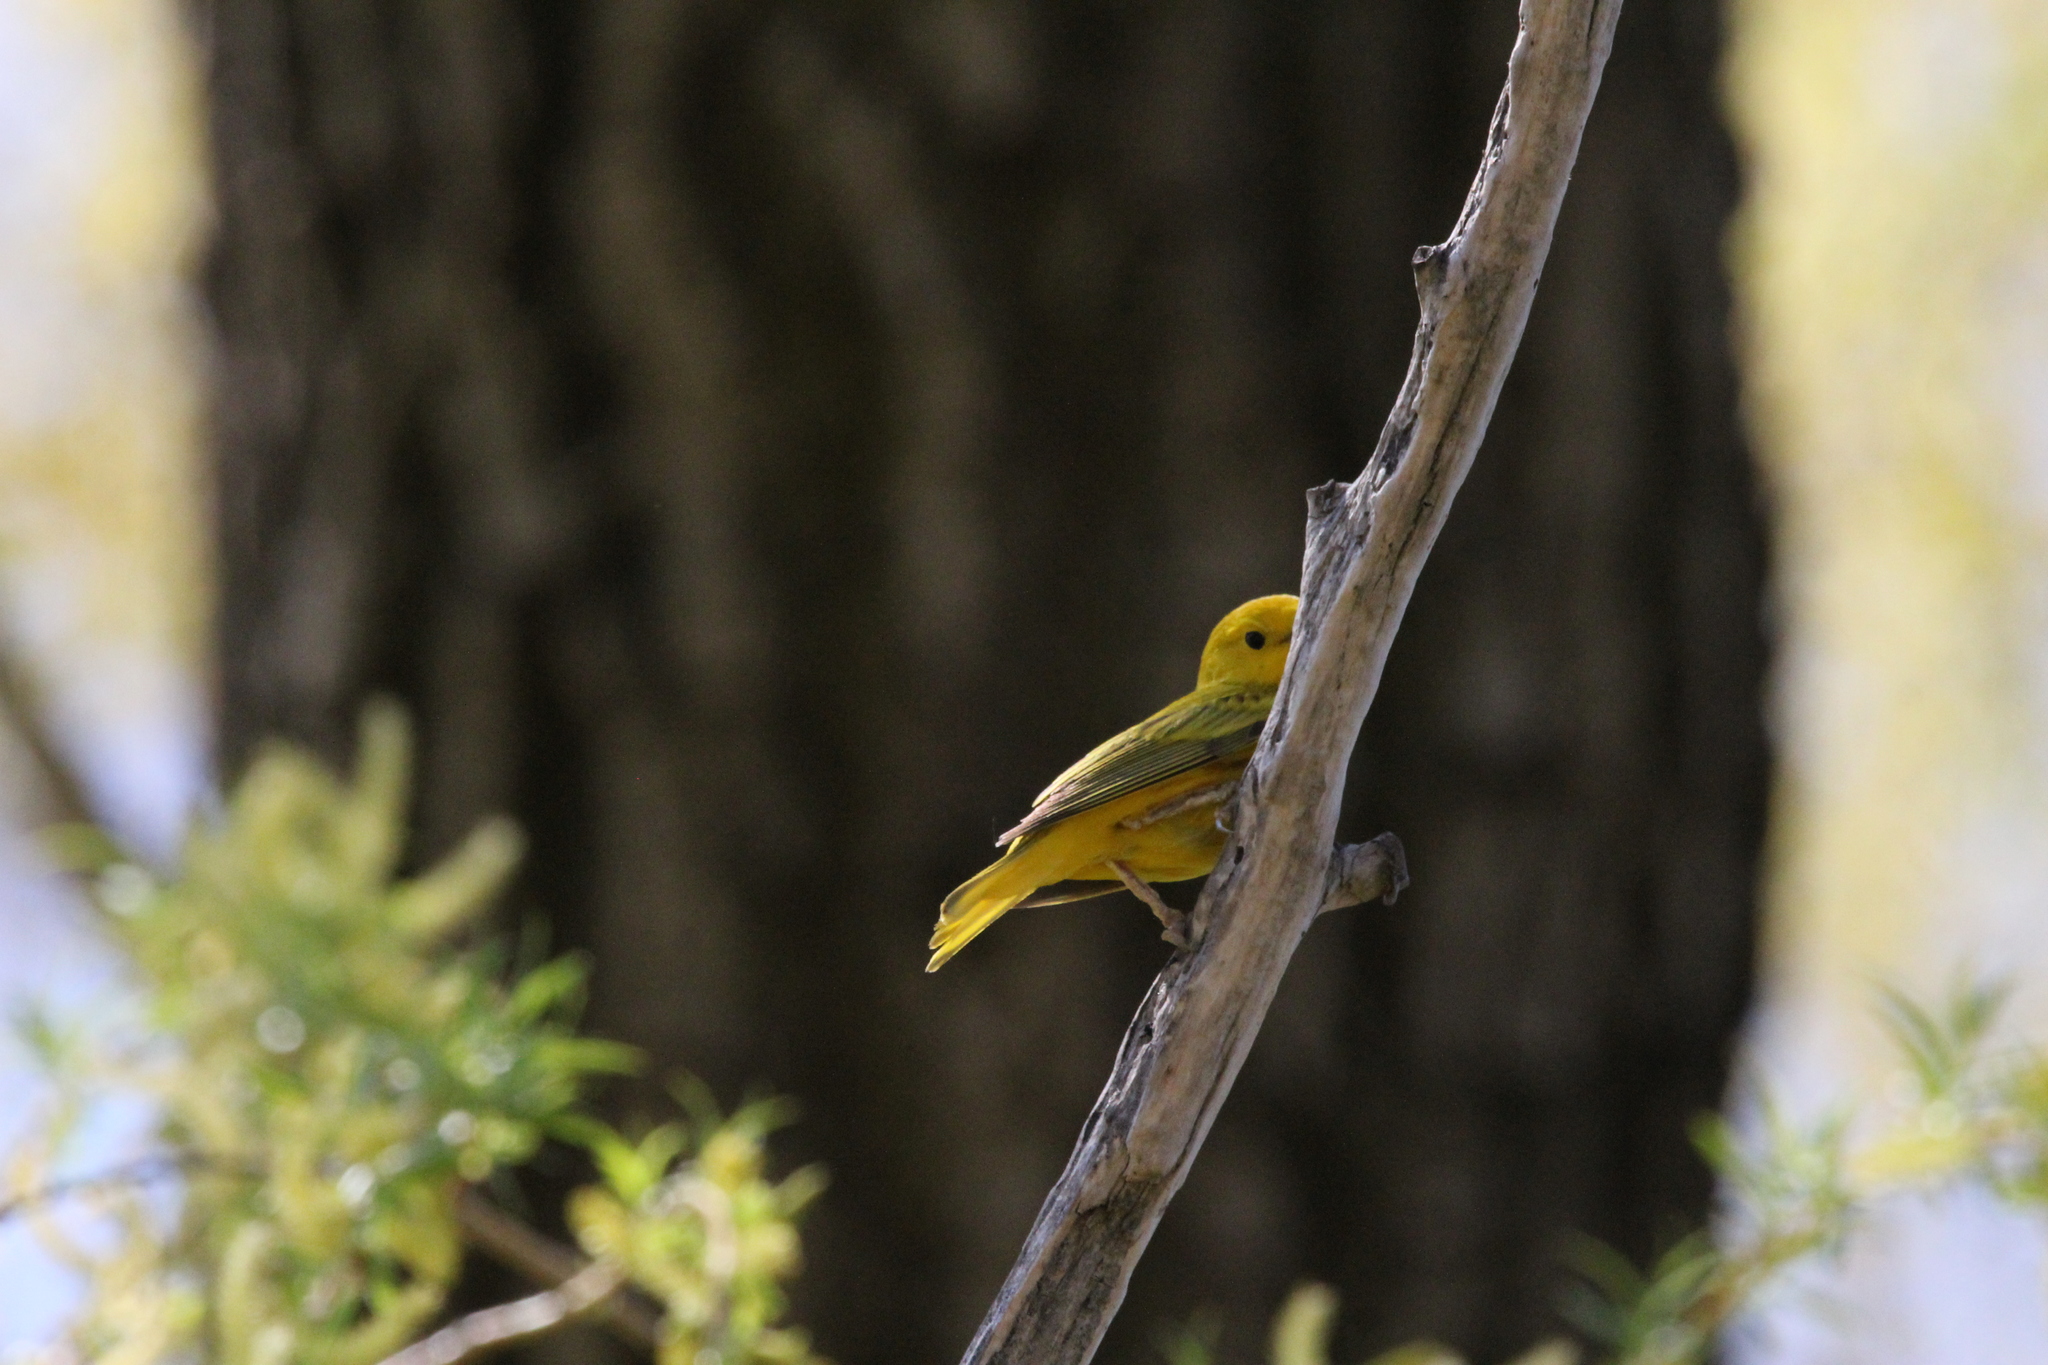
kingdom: Animalia
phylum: Chordata
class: Aves
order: Passeriformes
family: Parulidae
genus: Setophaga
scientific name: Setophaga petechia
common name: Yellow warbler
